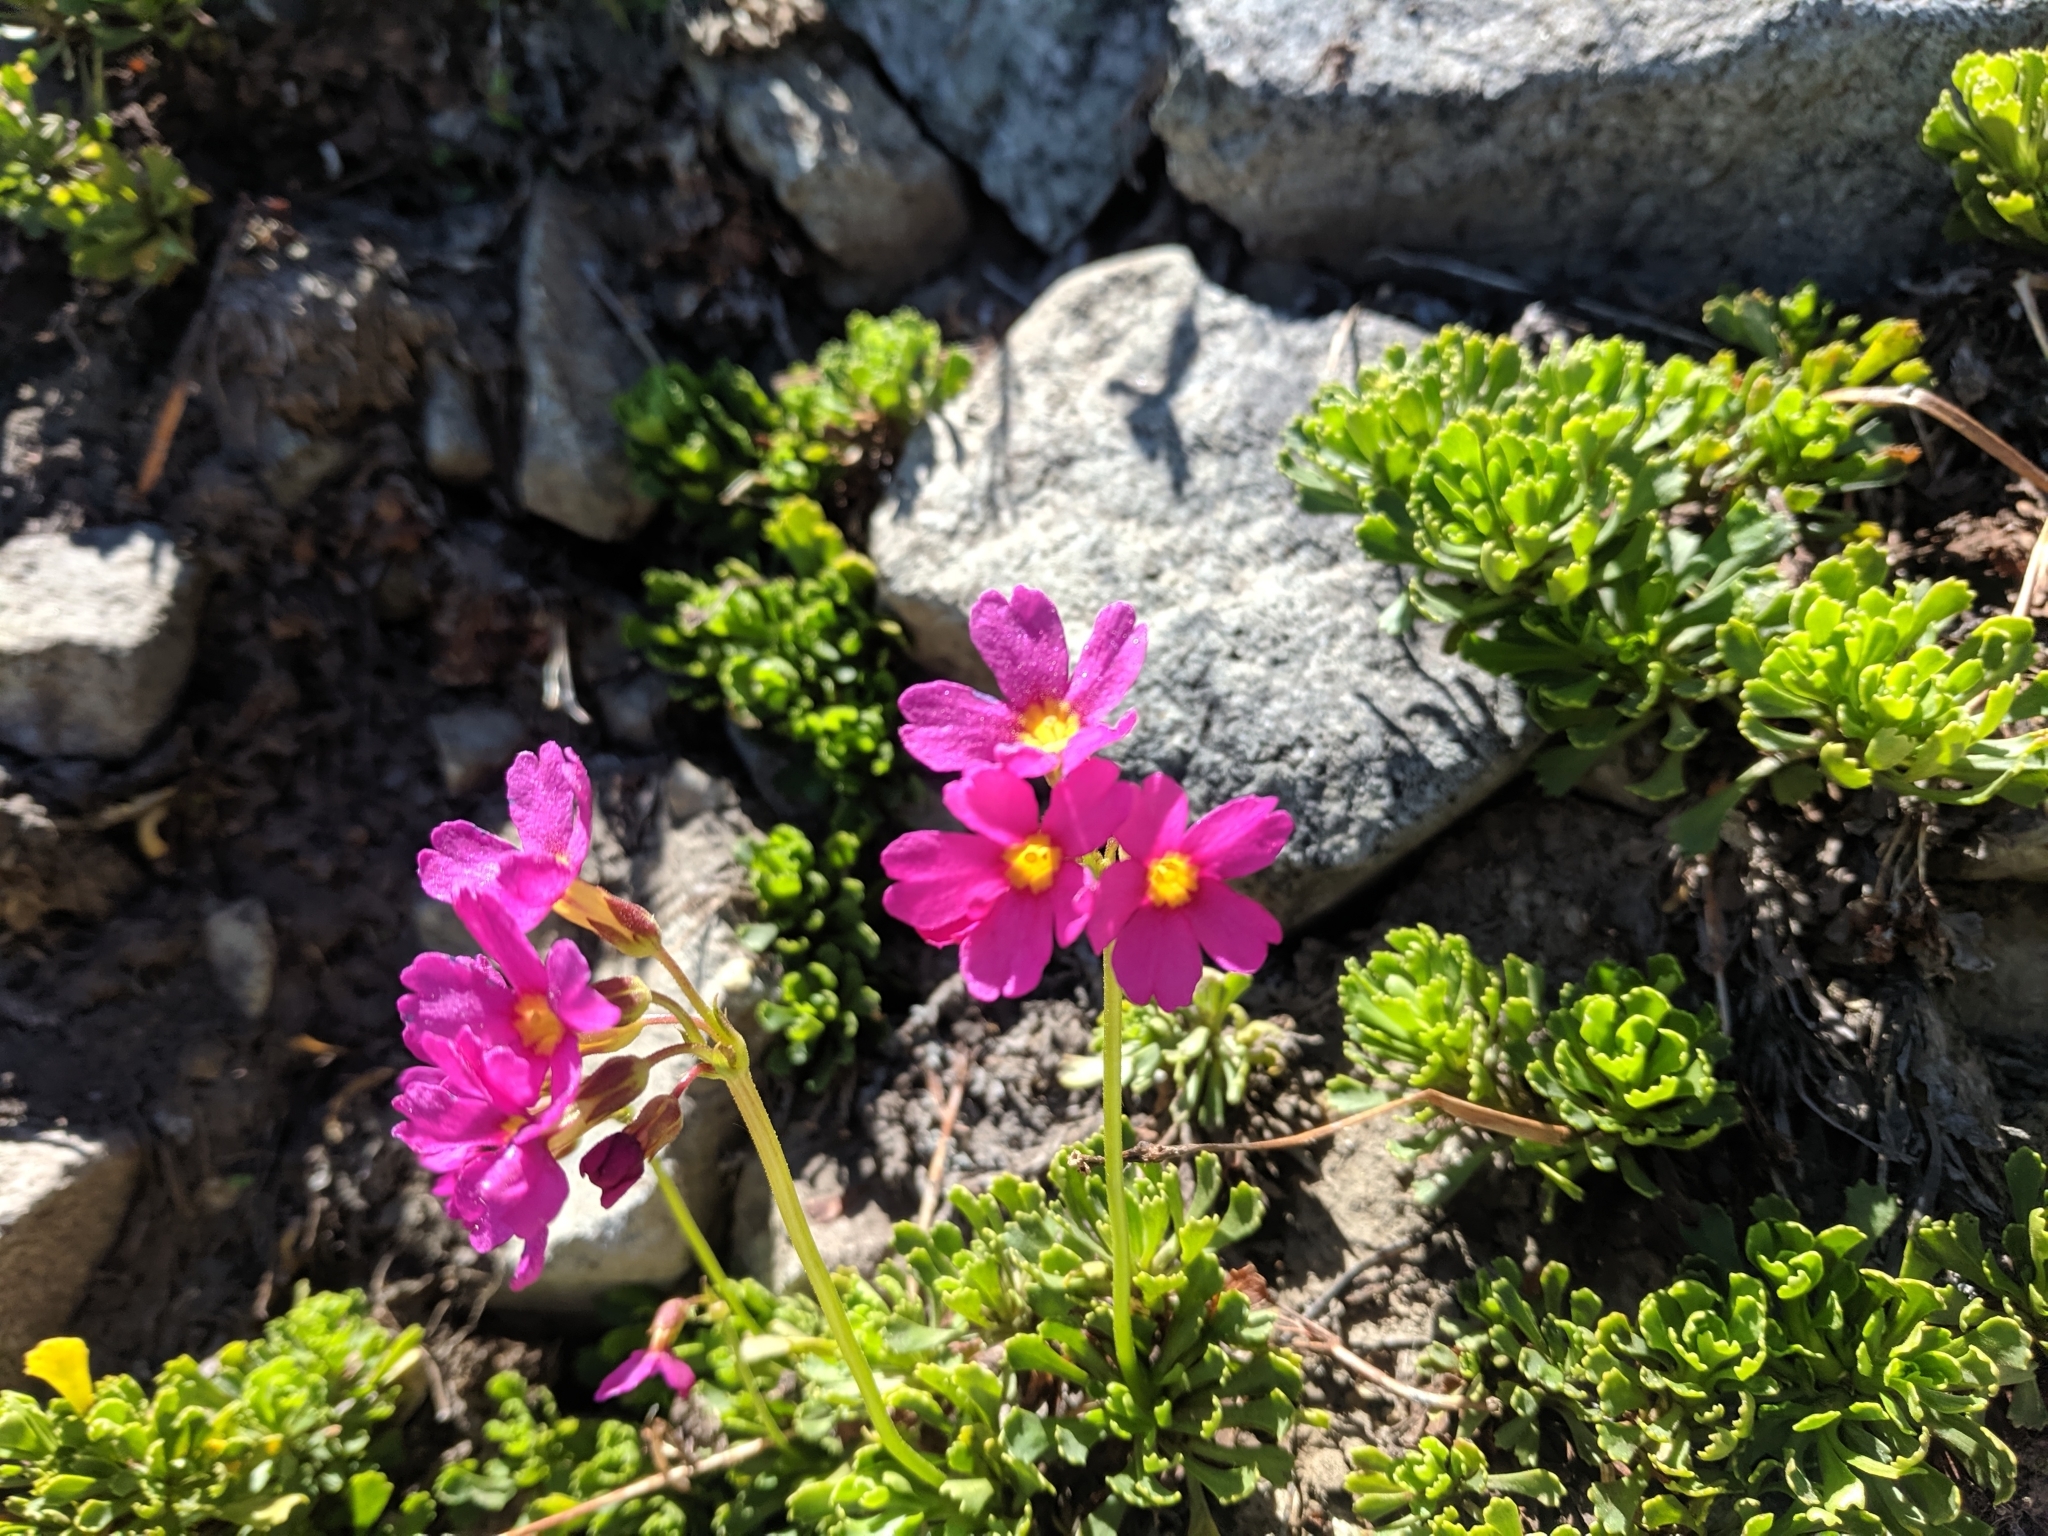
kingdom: Plantae
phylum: Tracheophyta
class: Magnoliopsida
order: Ericales
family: Primulaceae
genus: Primula
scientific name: Primula suffrutescens
